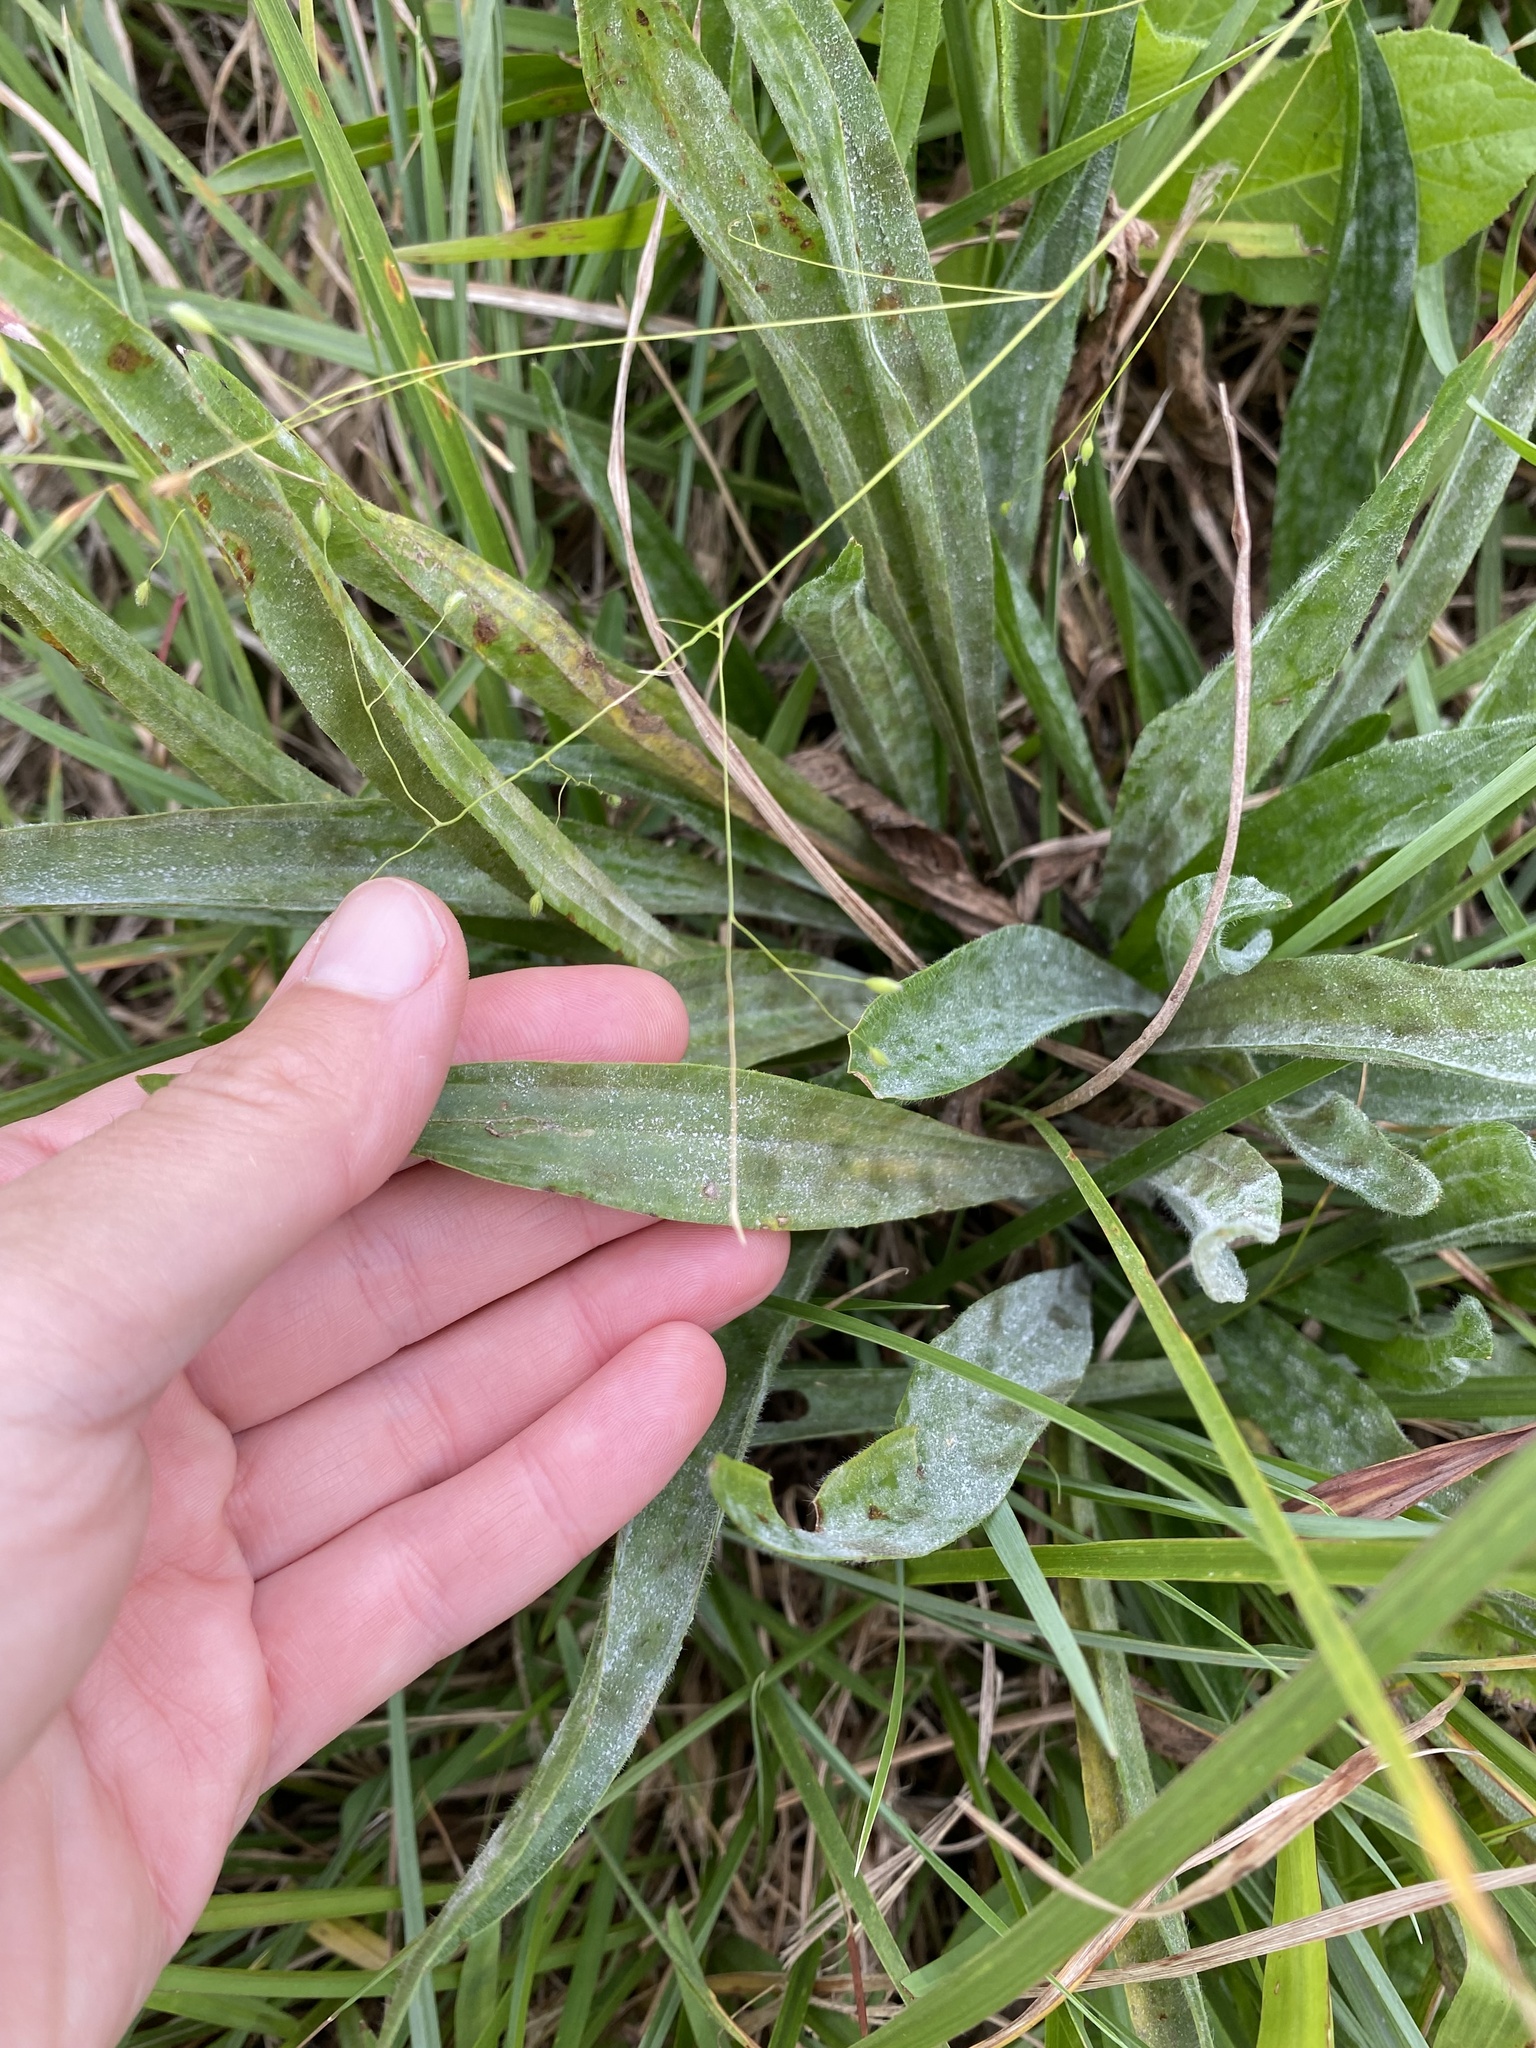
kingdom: Plantae
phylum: Tracheophyta
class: Magnoliopsida
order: Lamiales
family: Plantaginaceae
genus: Plantago
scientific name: Plantago lanceolata
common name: Ribwort plantain
